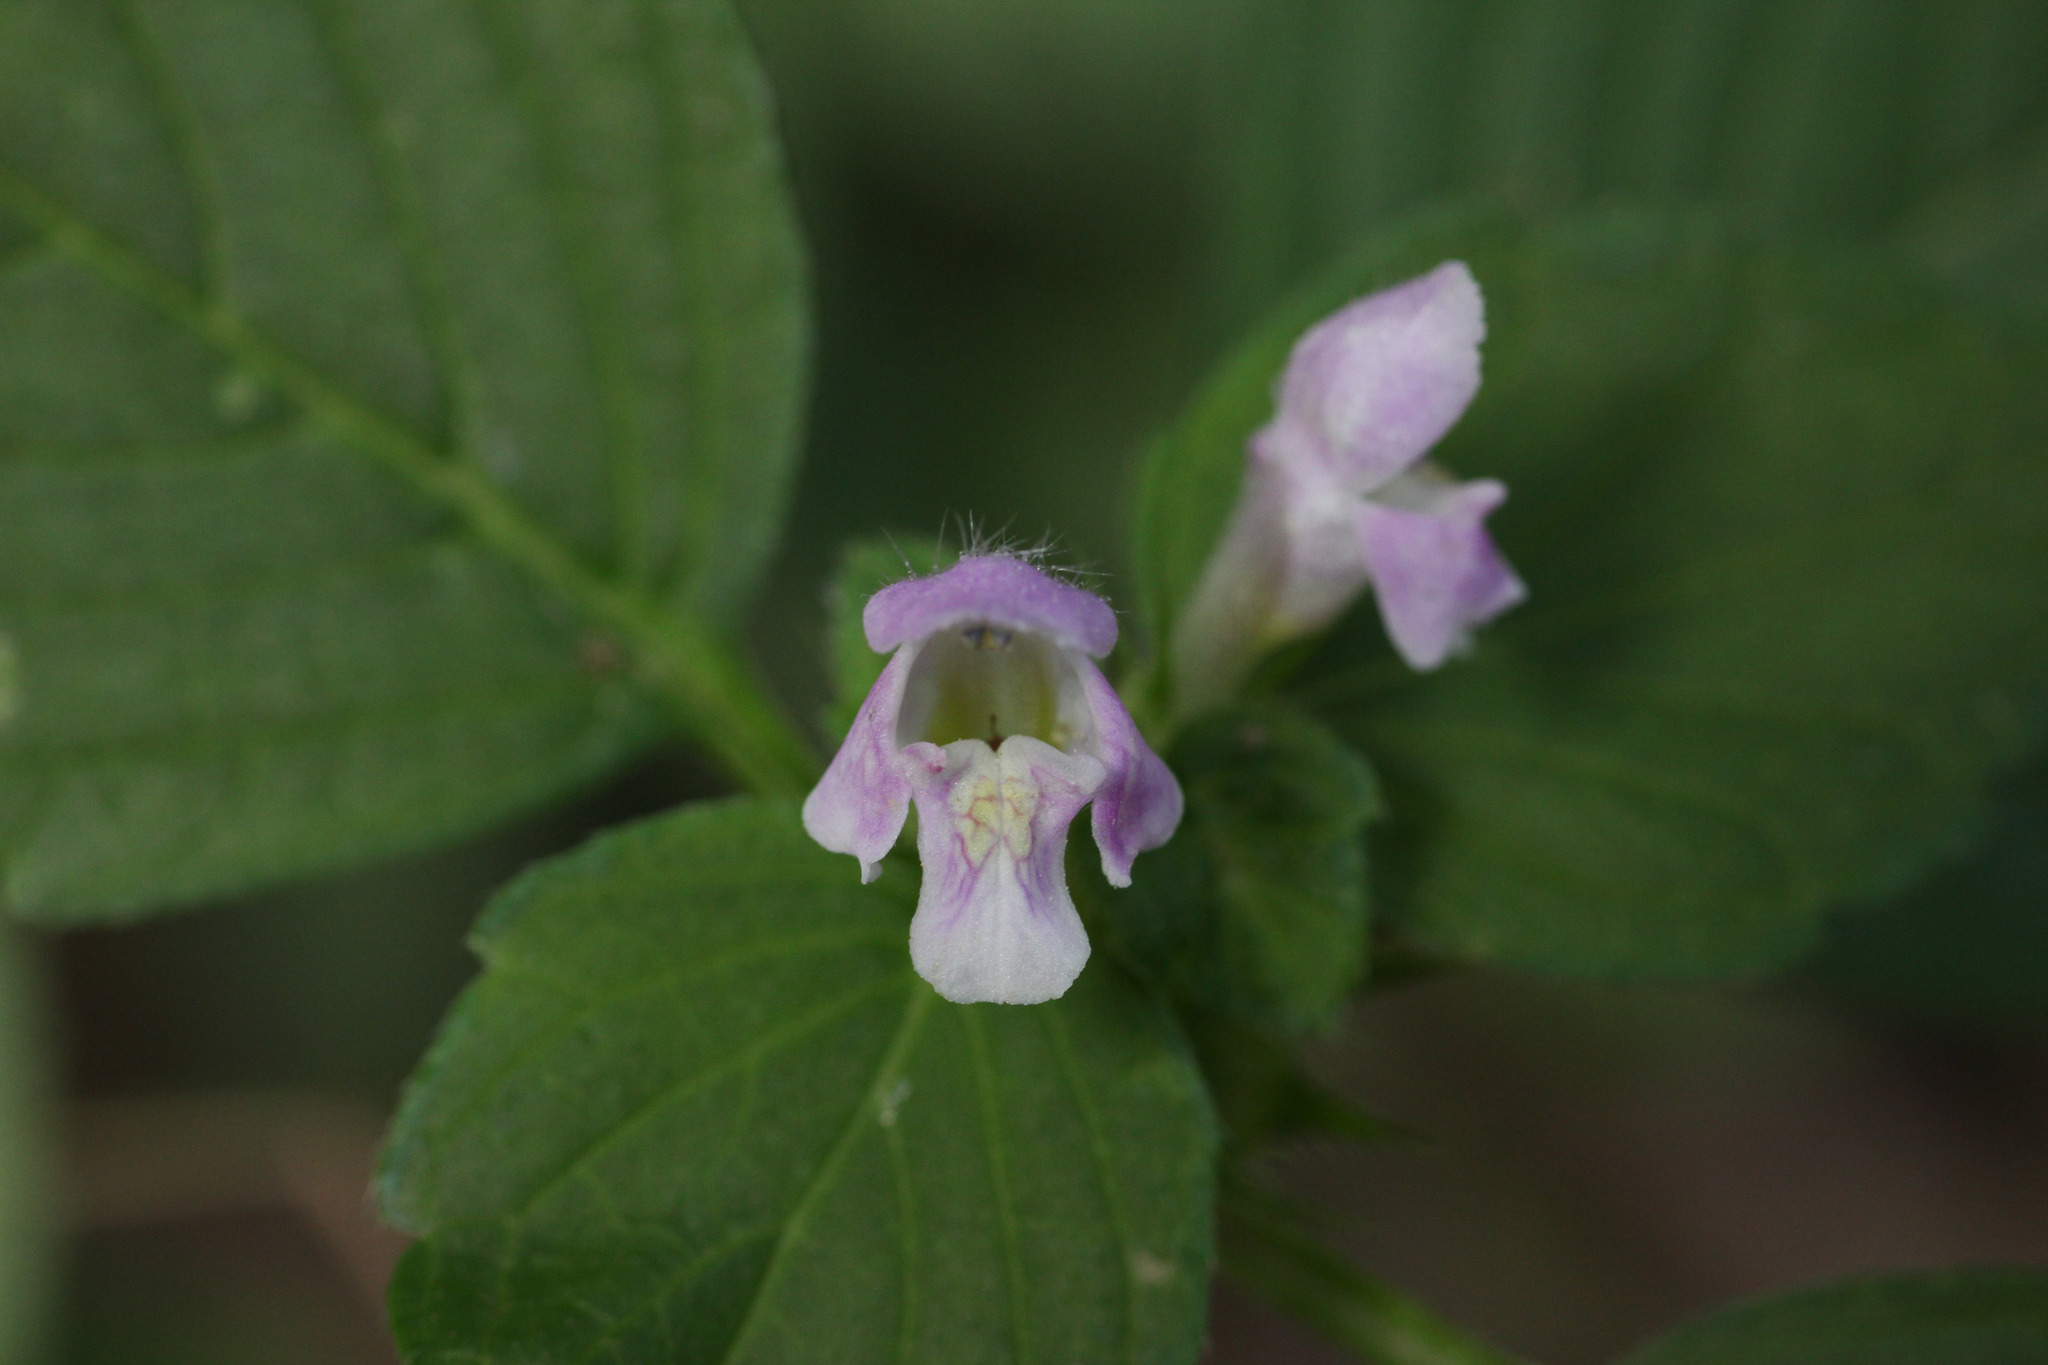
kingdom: Plantae
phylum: Tracheophyta
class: Magnoliopsida
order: Lamiales
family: Lamiaceae
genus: Galeopsis
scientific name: Galeopsis tetrahit
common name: Common hemp-nettle
